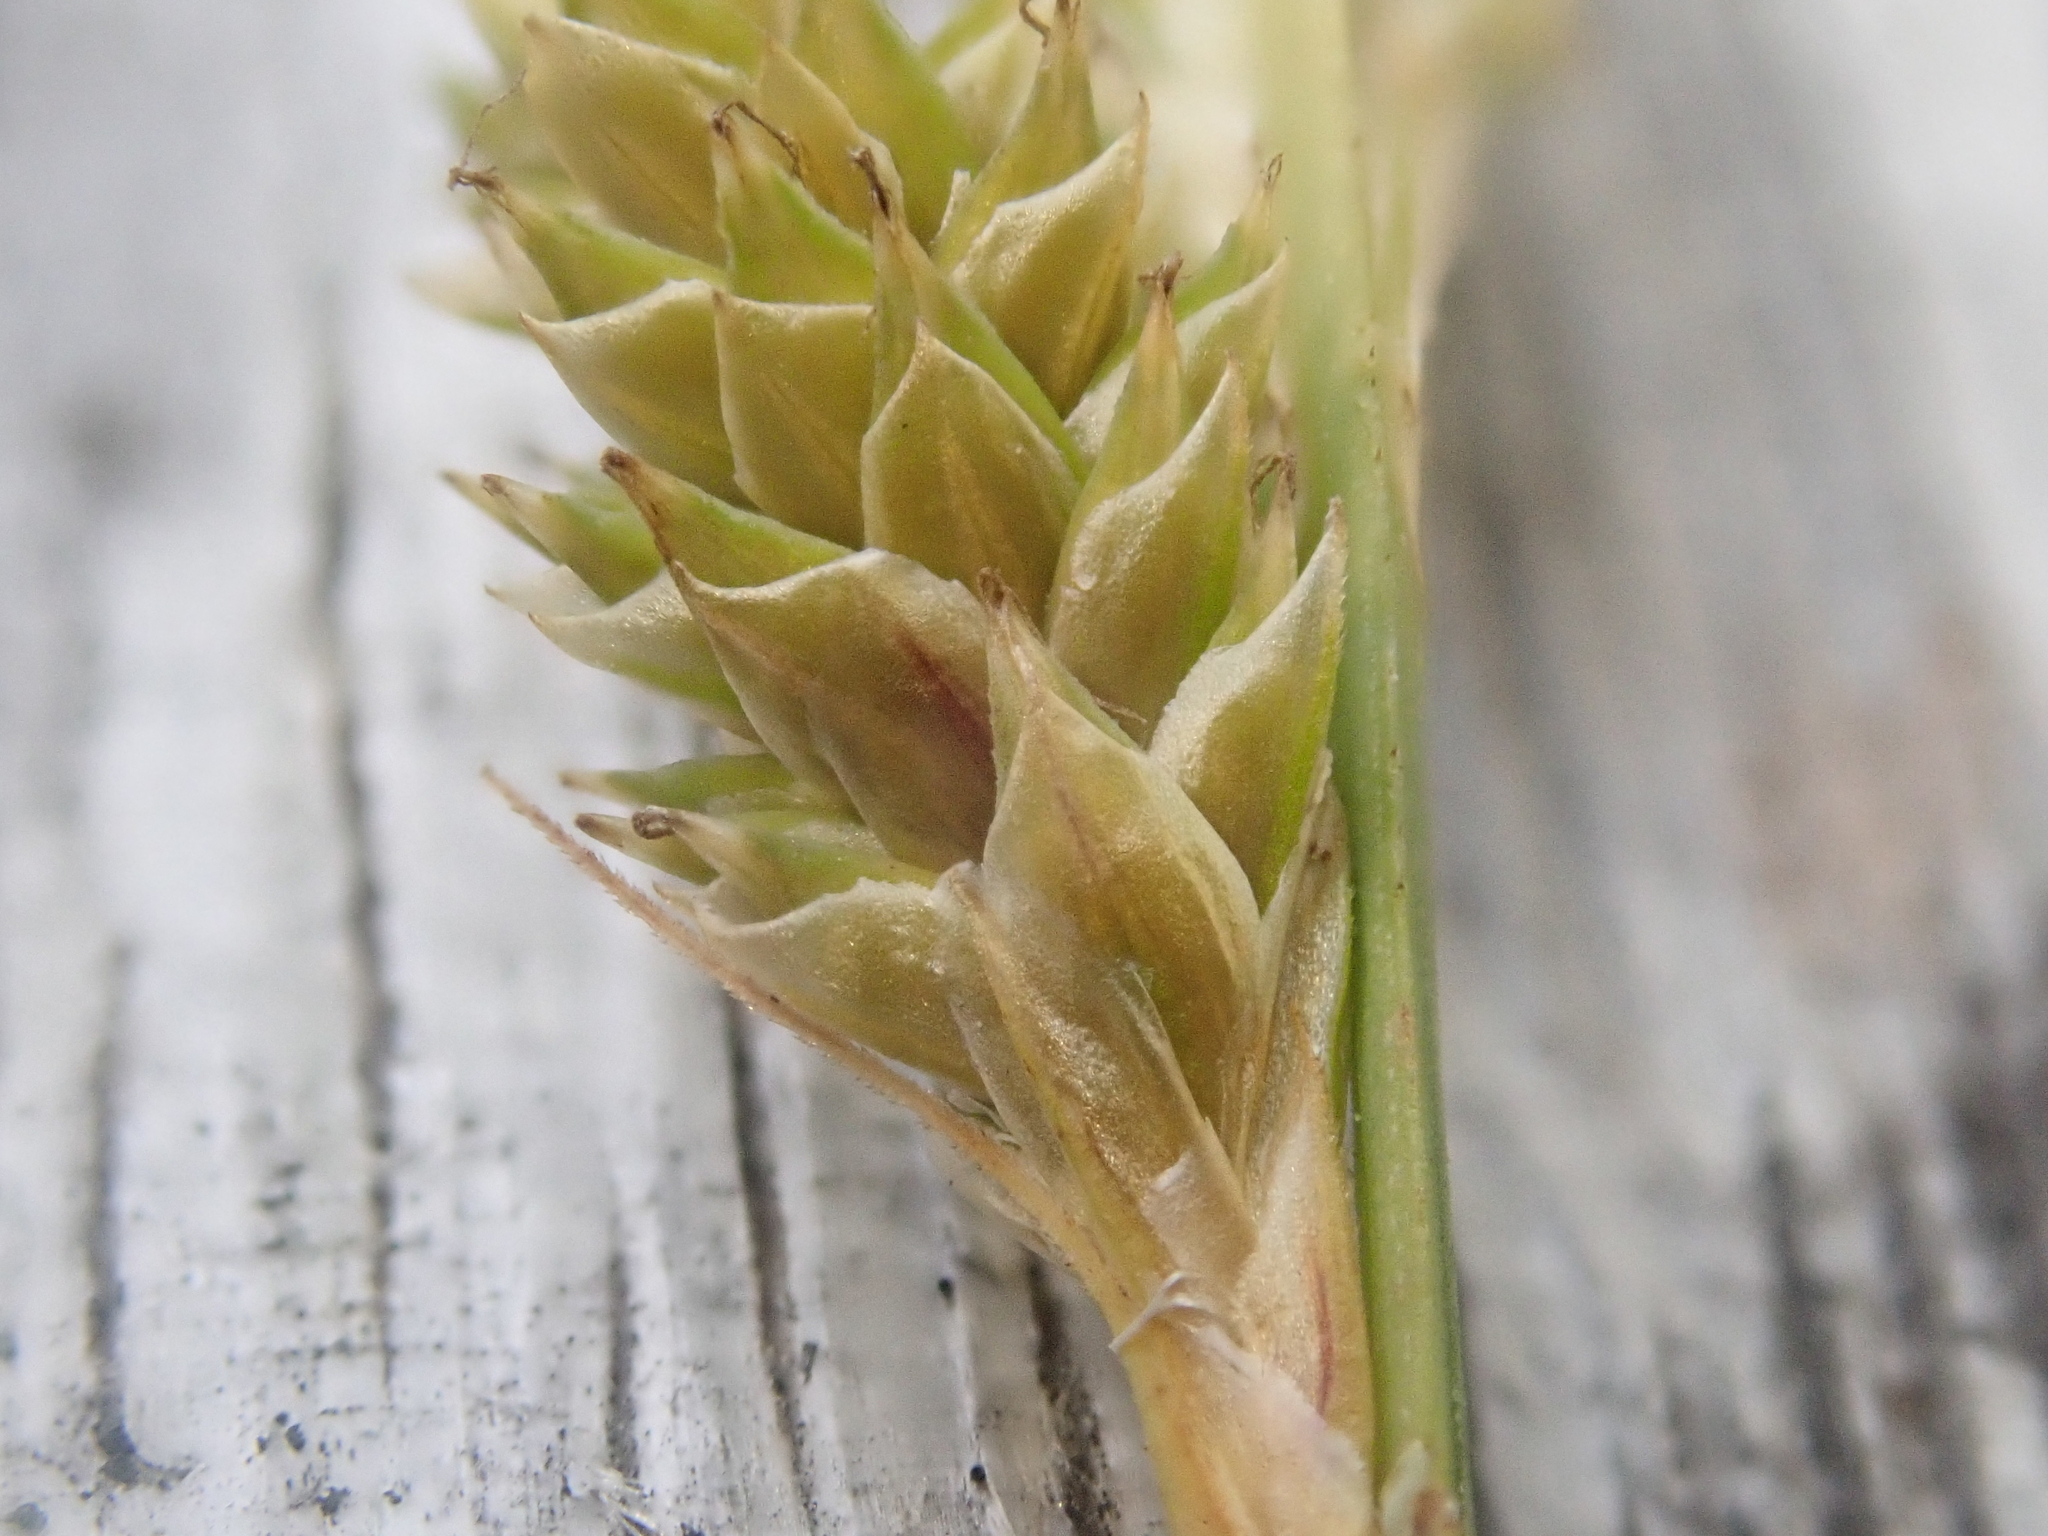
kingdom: Plantae
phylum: Tracheophyta
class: Liliopsida
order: Poales
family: Cyperaceae
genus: Carex
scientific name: Carex canescens
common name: White sedge
